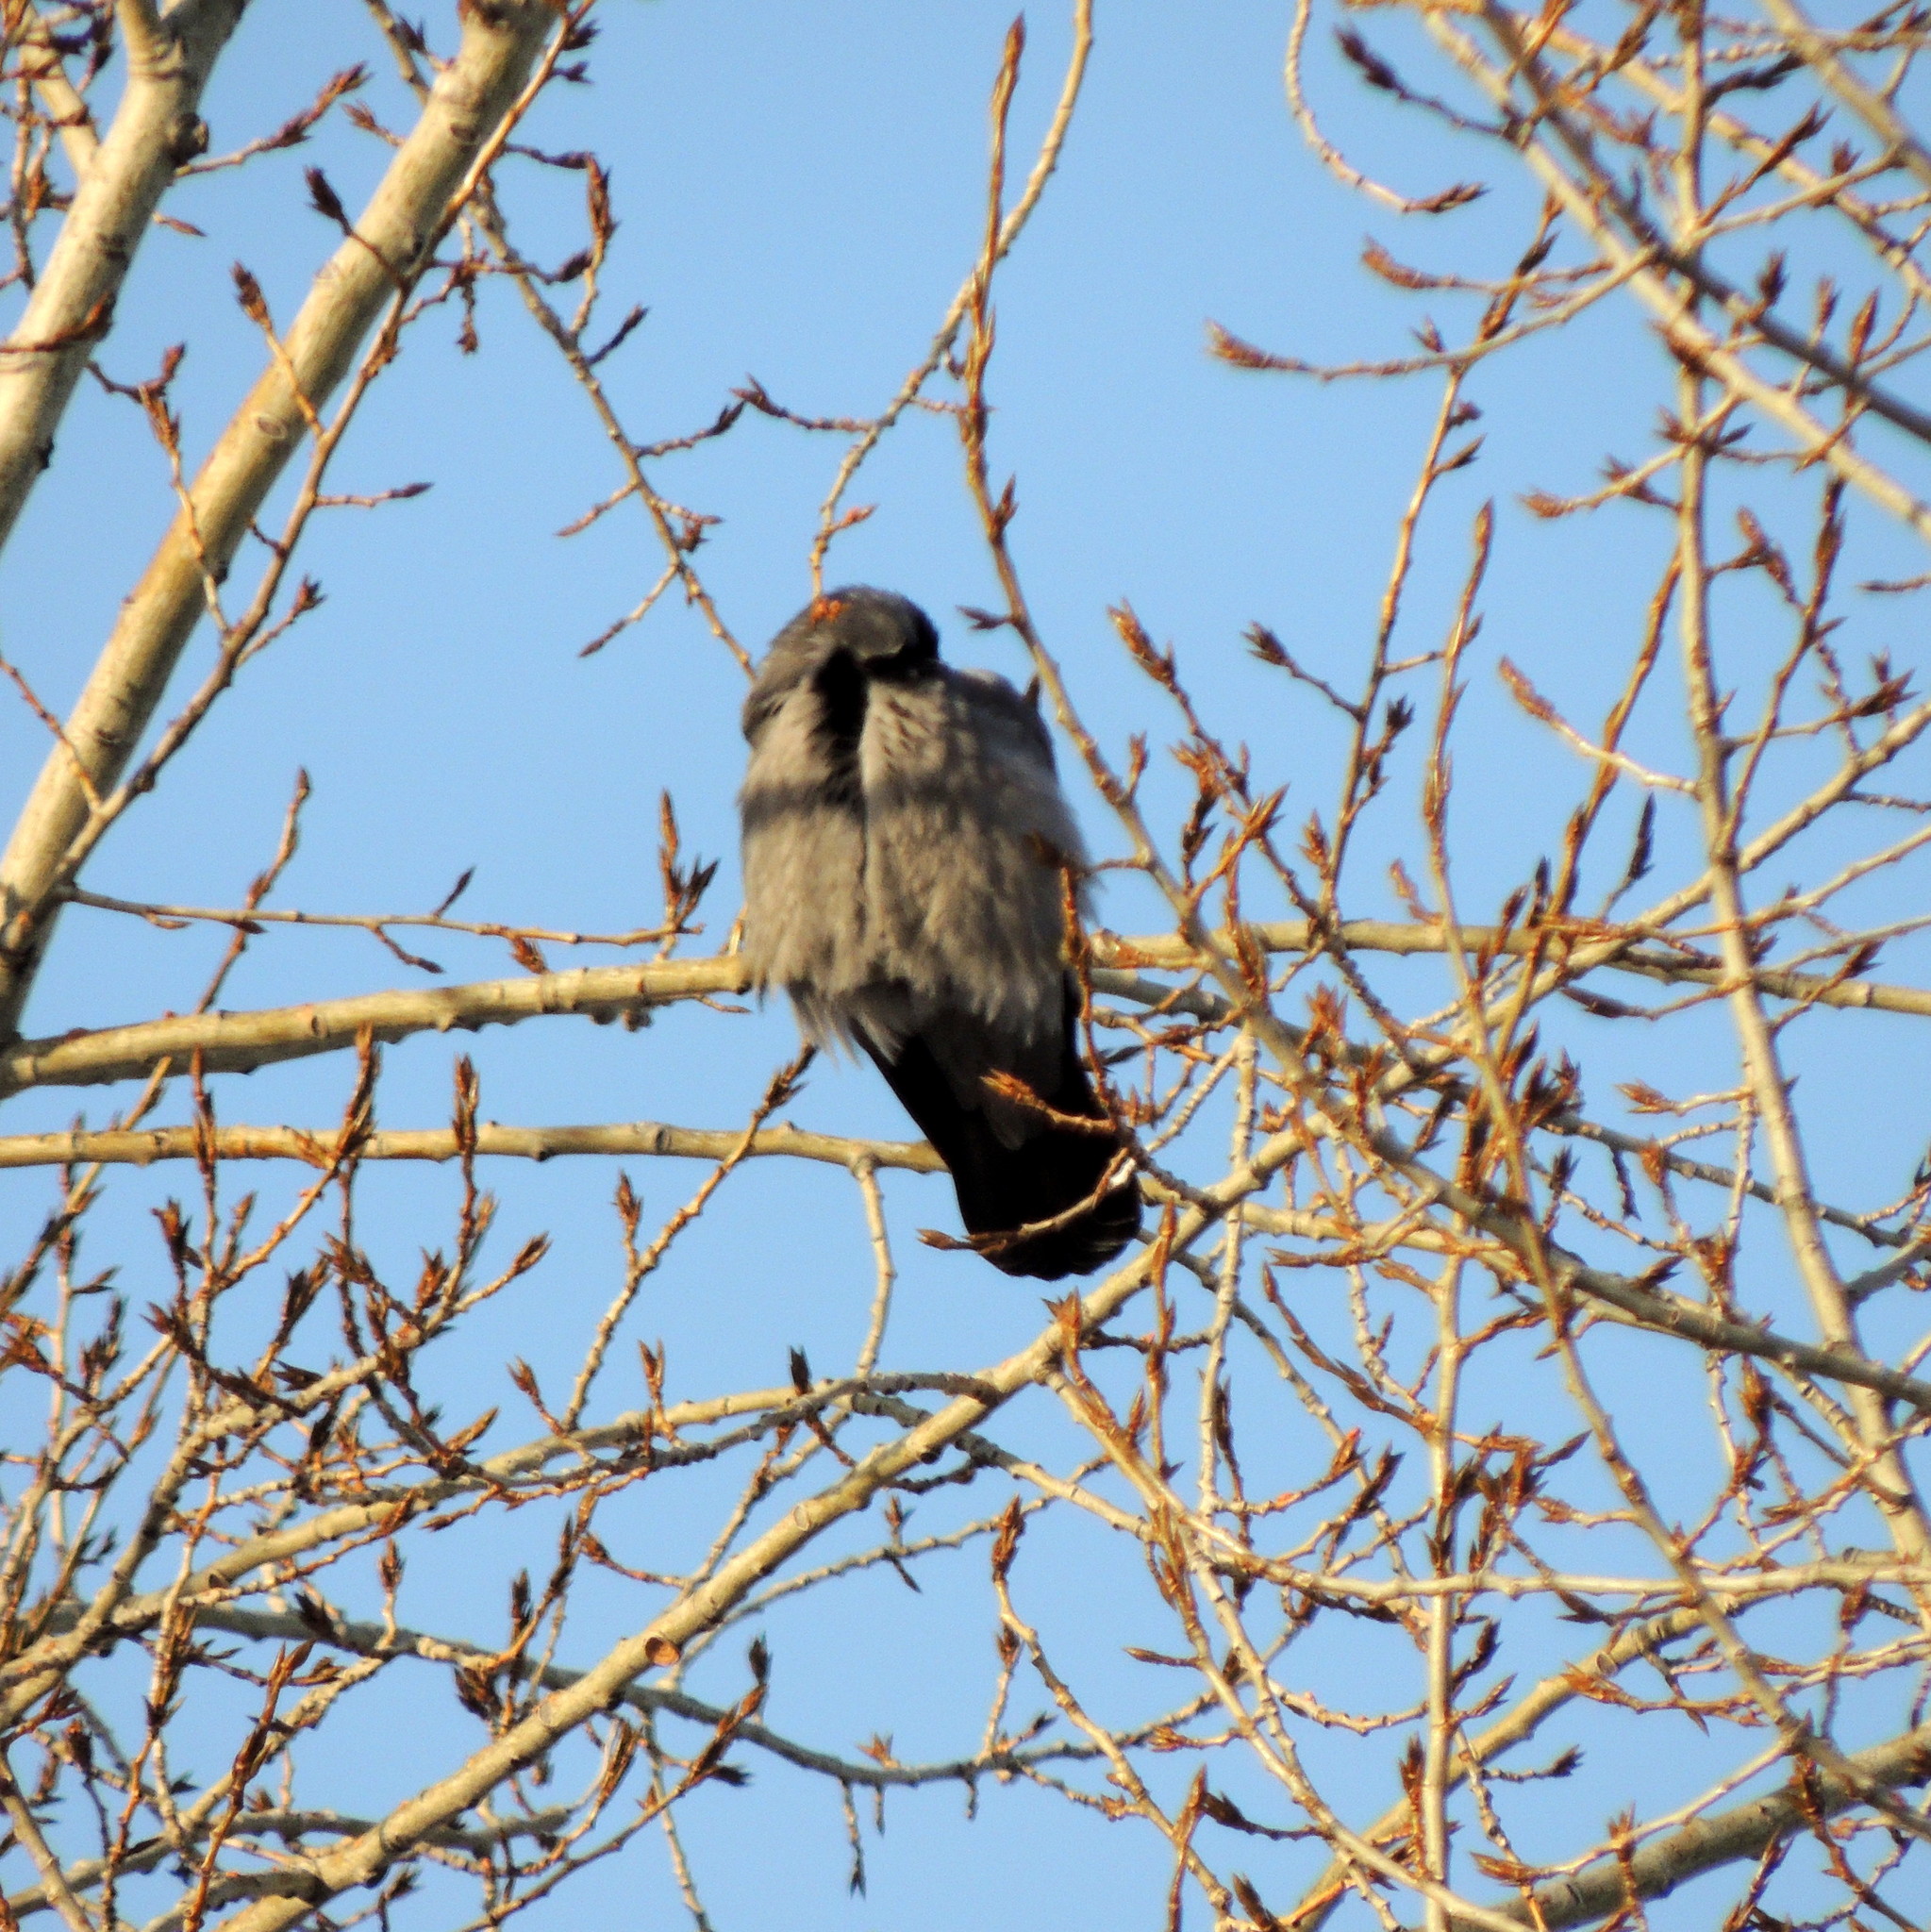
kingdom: Animalia
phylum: Chordata
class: Aves
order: Passeriformes
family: Corvidae
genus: Corvus
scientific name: Corvus cornix
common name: Hooded crow
